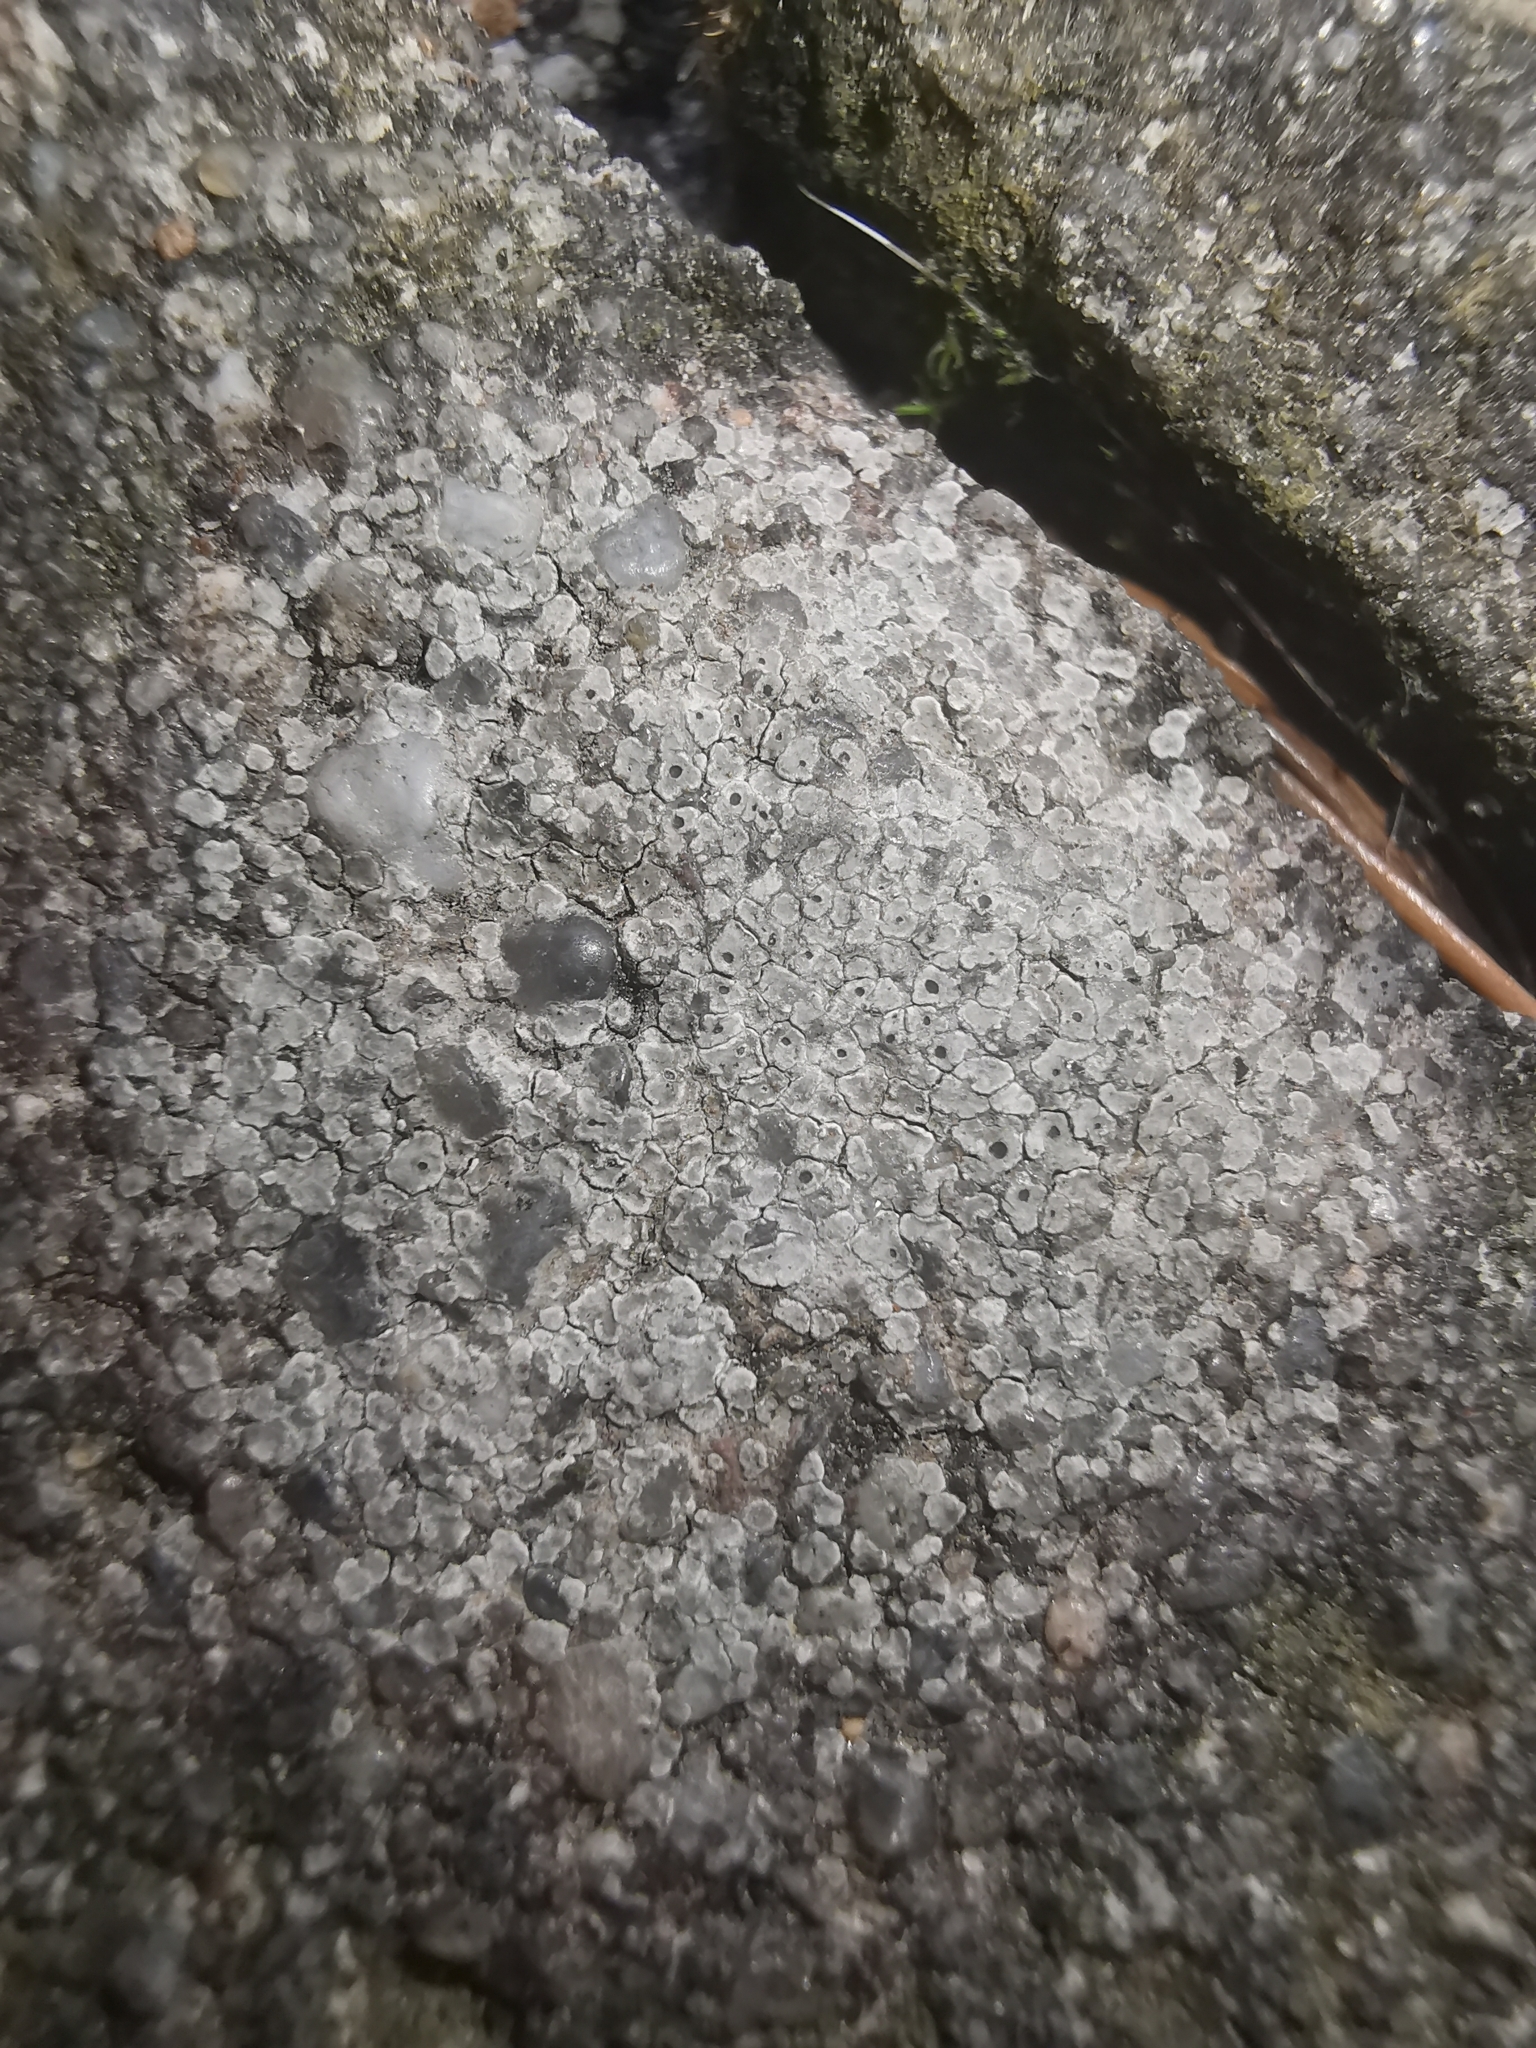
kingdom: Fungi
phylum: Ascomycota
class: Lecanoromycetes
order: Pertusariales
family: Megasporaceae
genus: Circinaria
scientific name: Circinaria contorta
